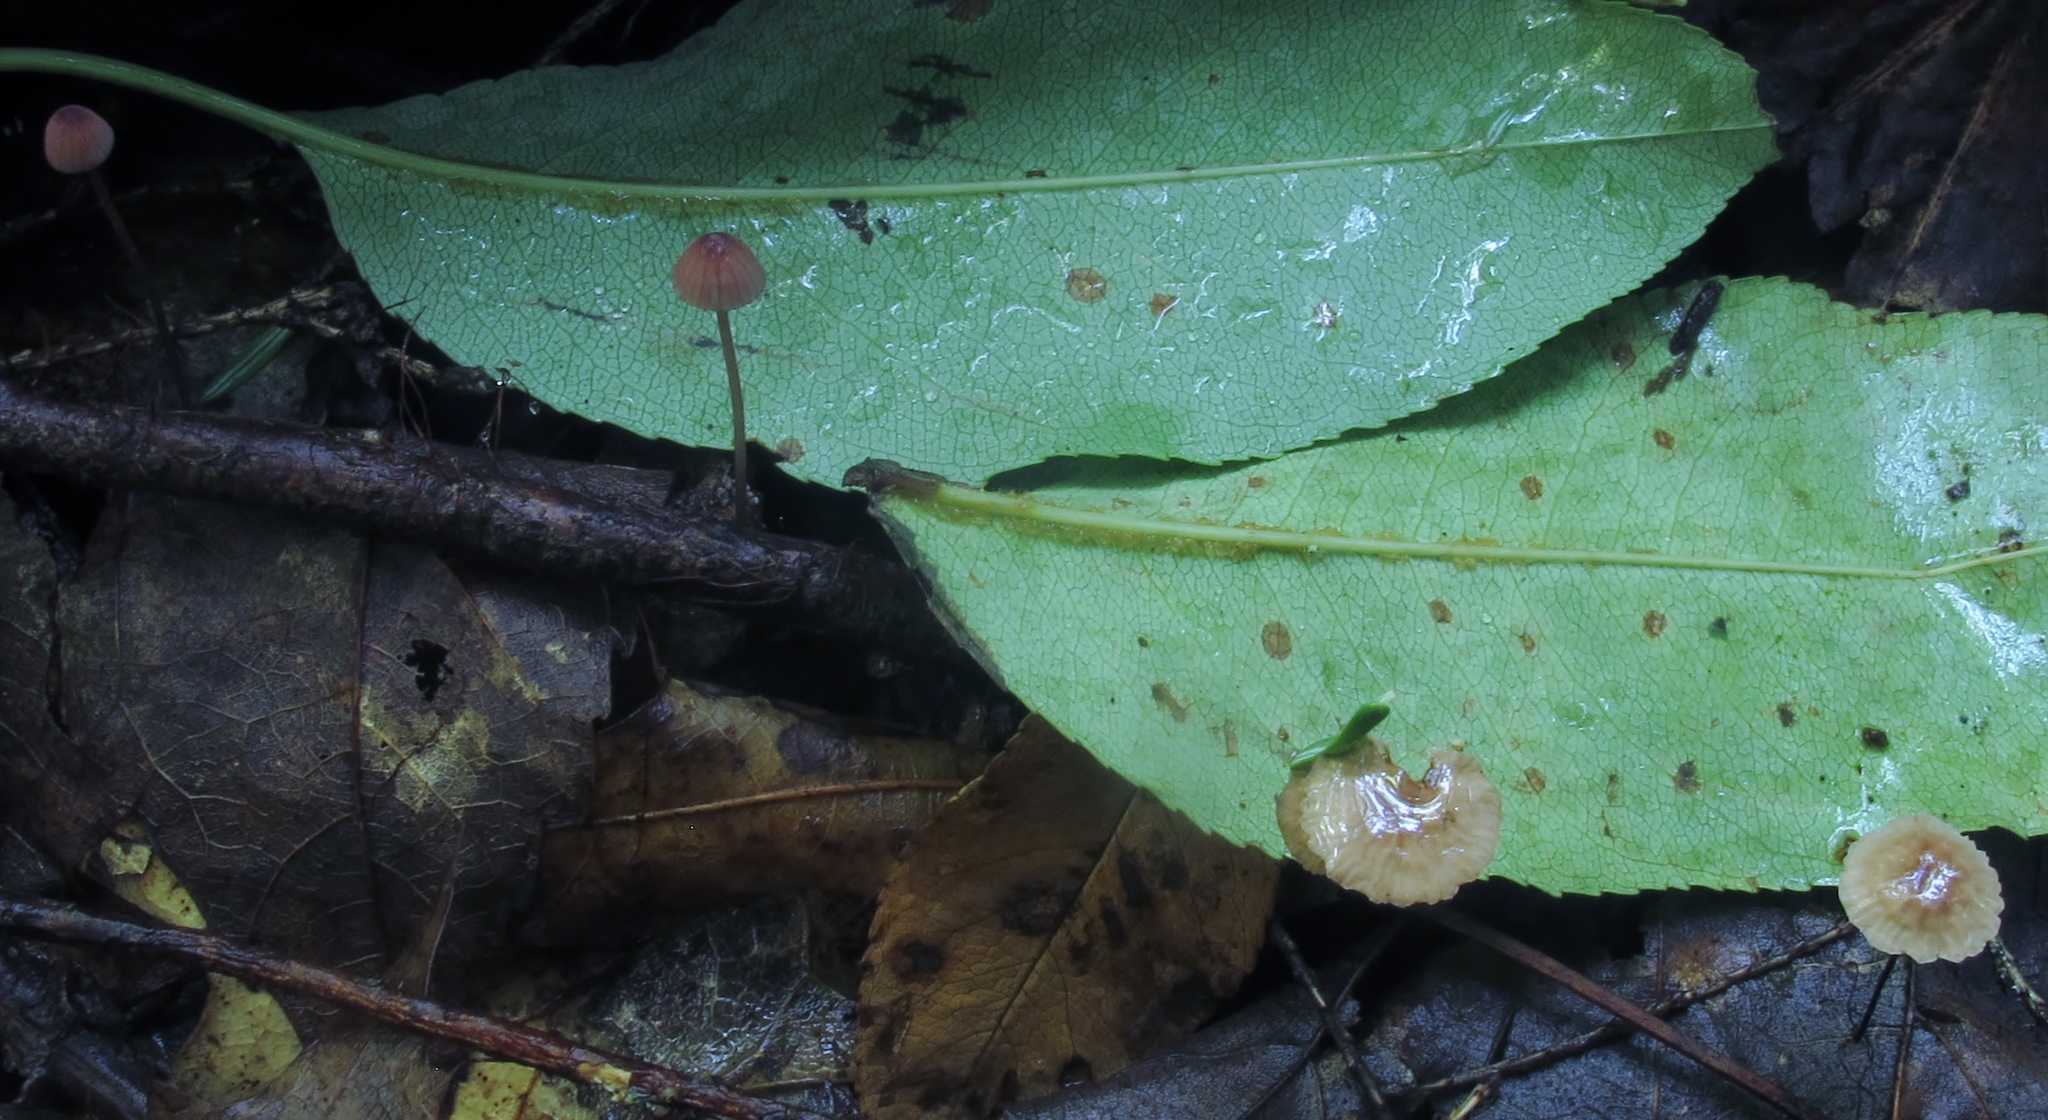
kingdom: Fungi
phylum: Basidiomycota
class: Agaricomycetes
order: Agaricales
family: Omphalotaceae
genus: Gymnopus
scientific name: Gymnopus androsaceus
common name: Horse-hair fungus
